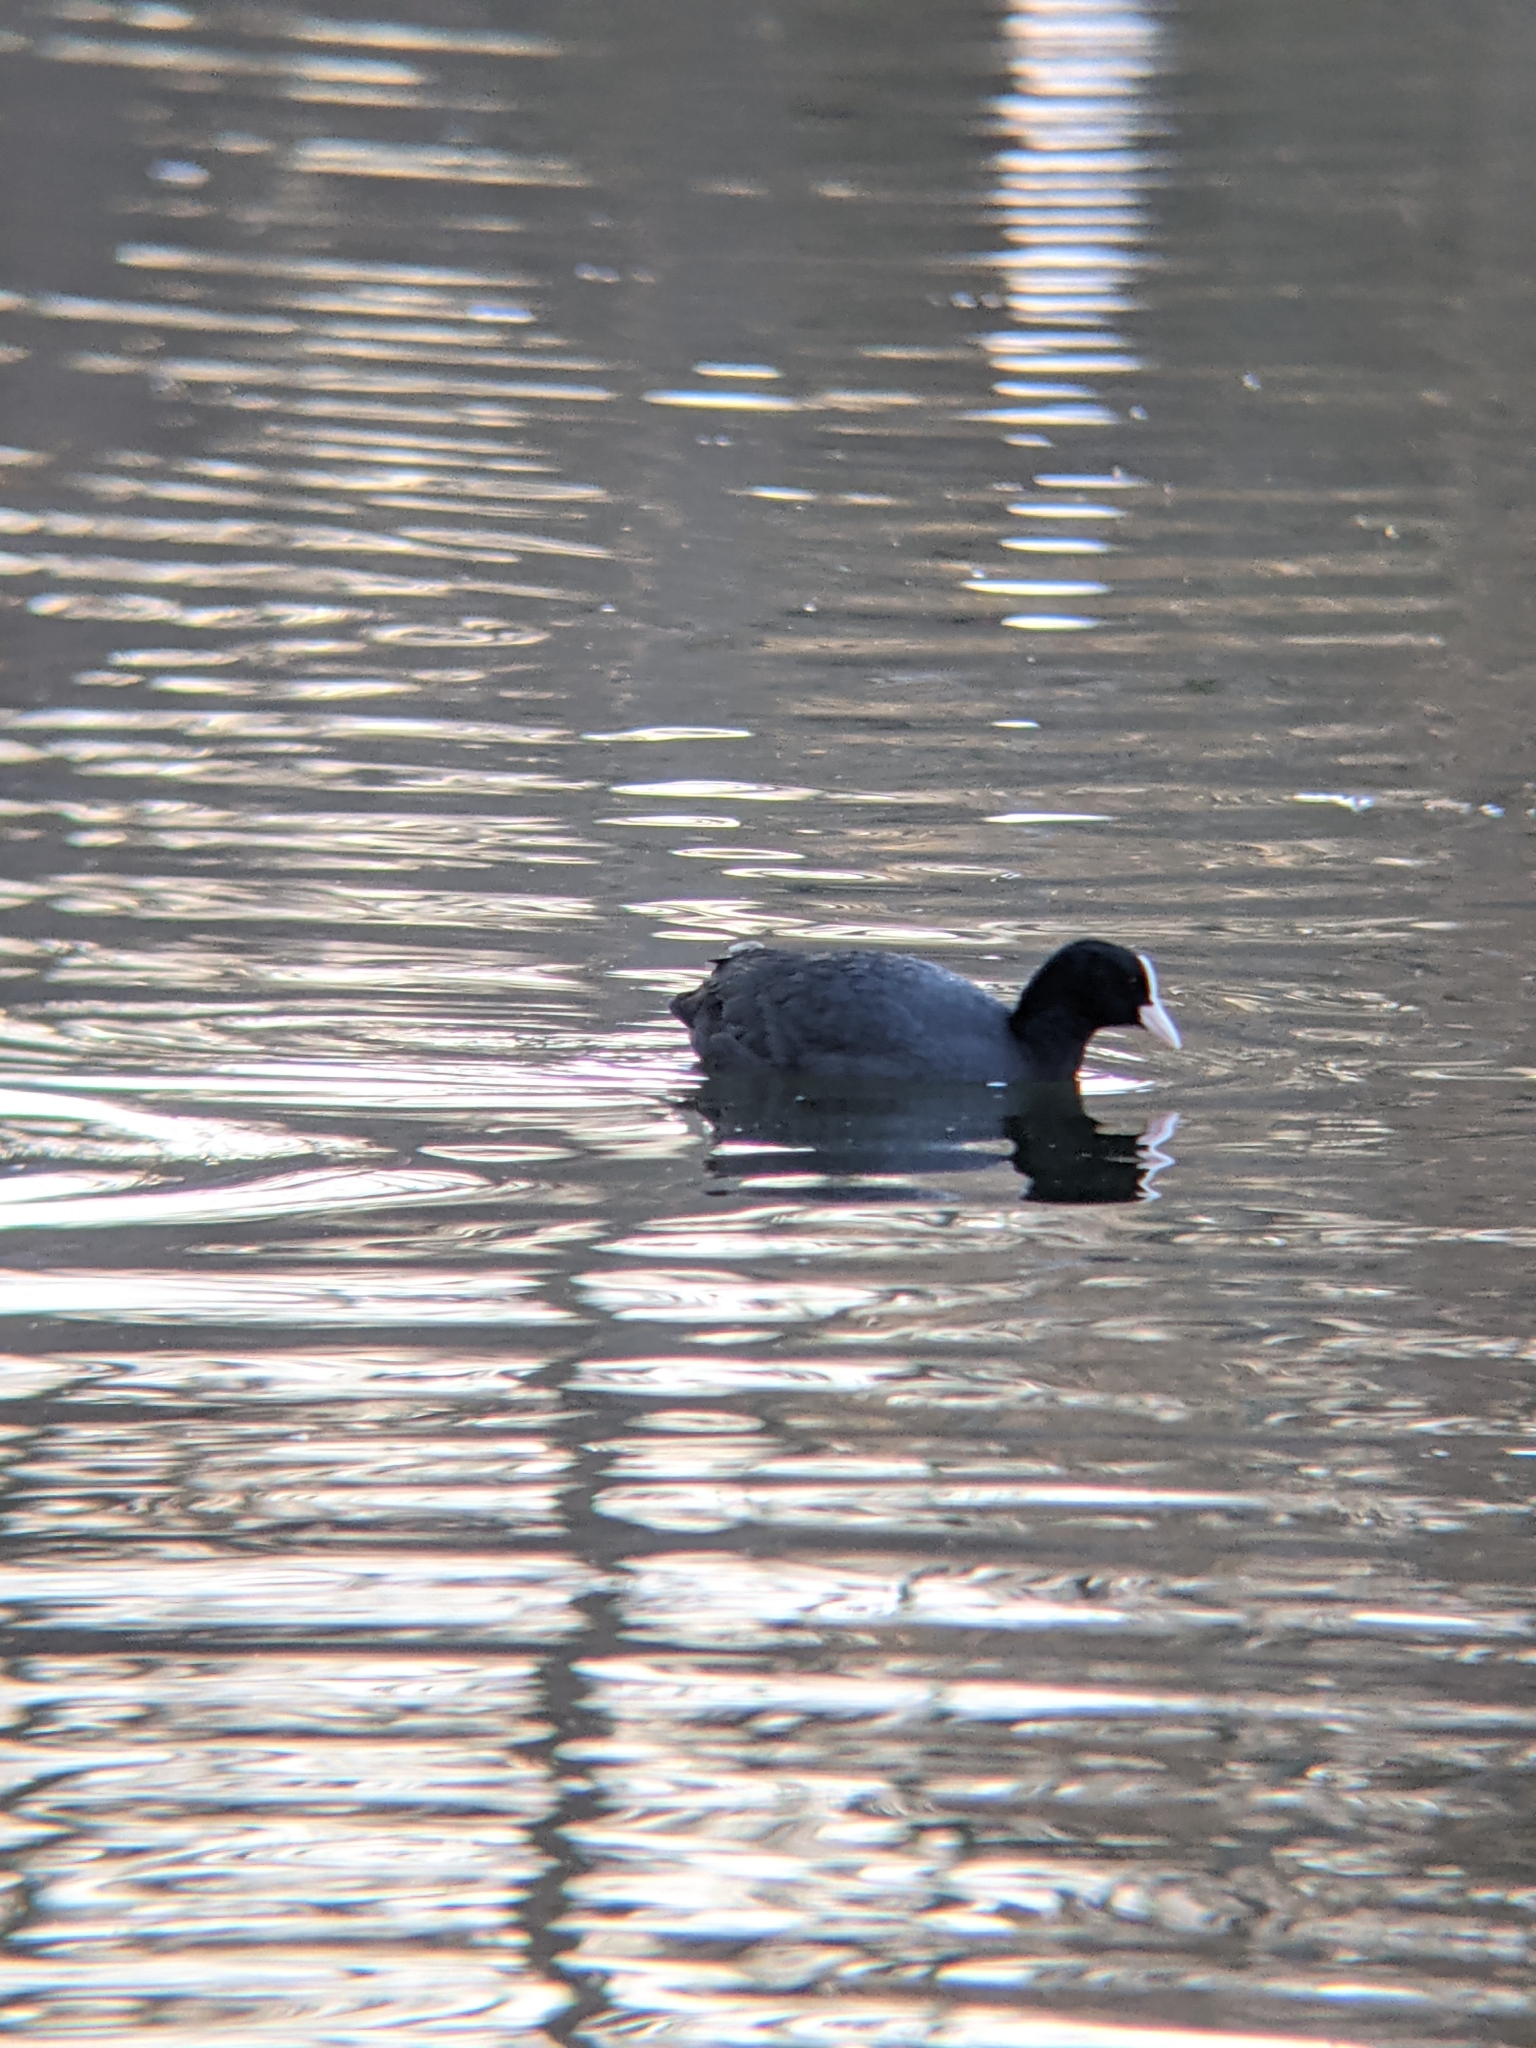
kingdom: Animalia
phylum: Chordata
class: Aves
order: Gruiformes
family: Rallidae
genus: Fulica
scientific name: Fulica atra
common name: Eurasian coot
